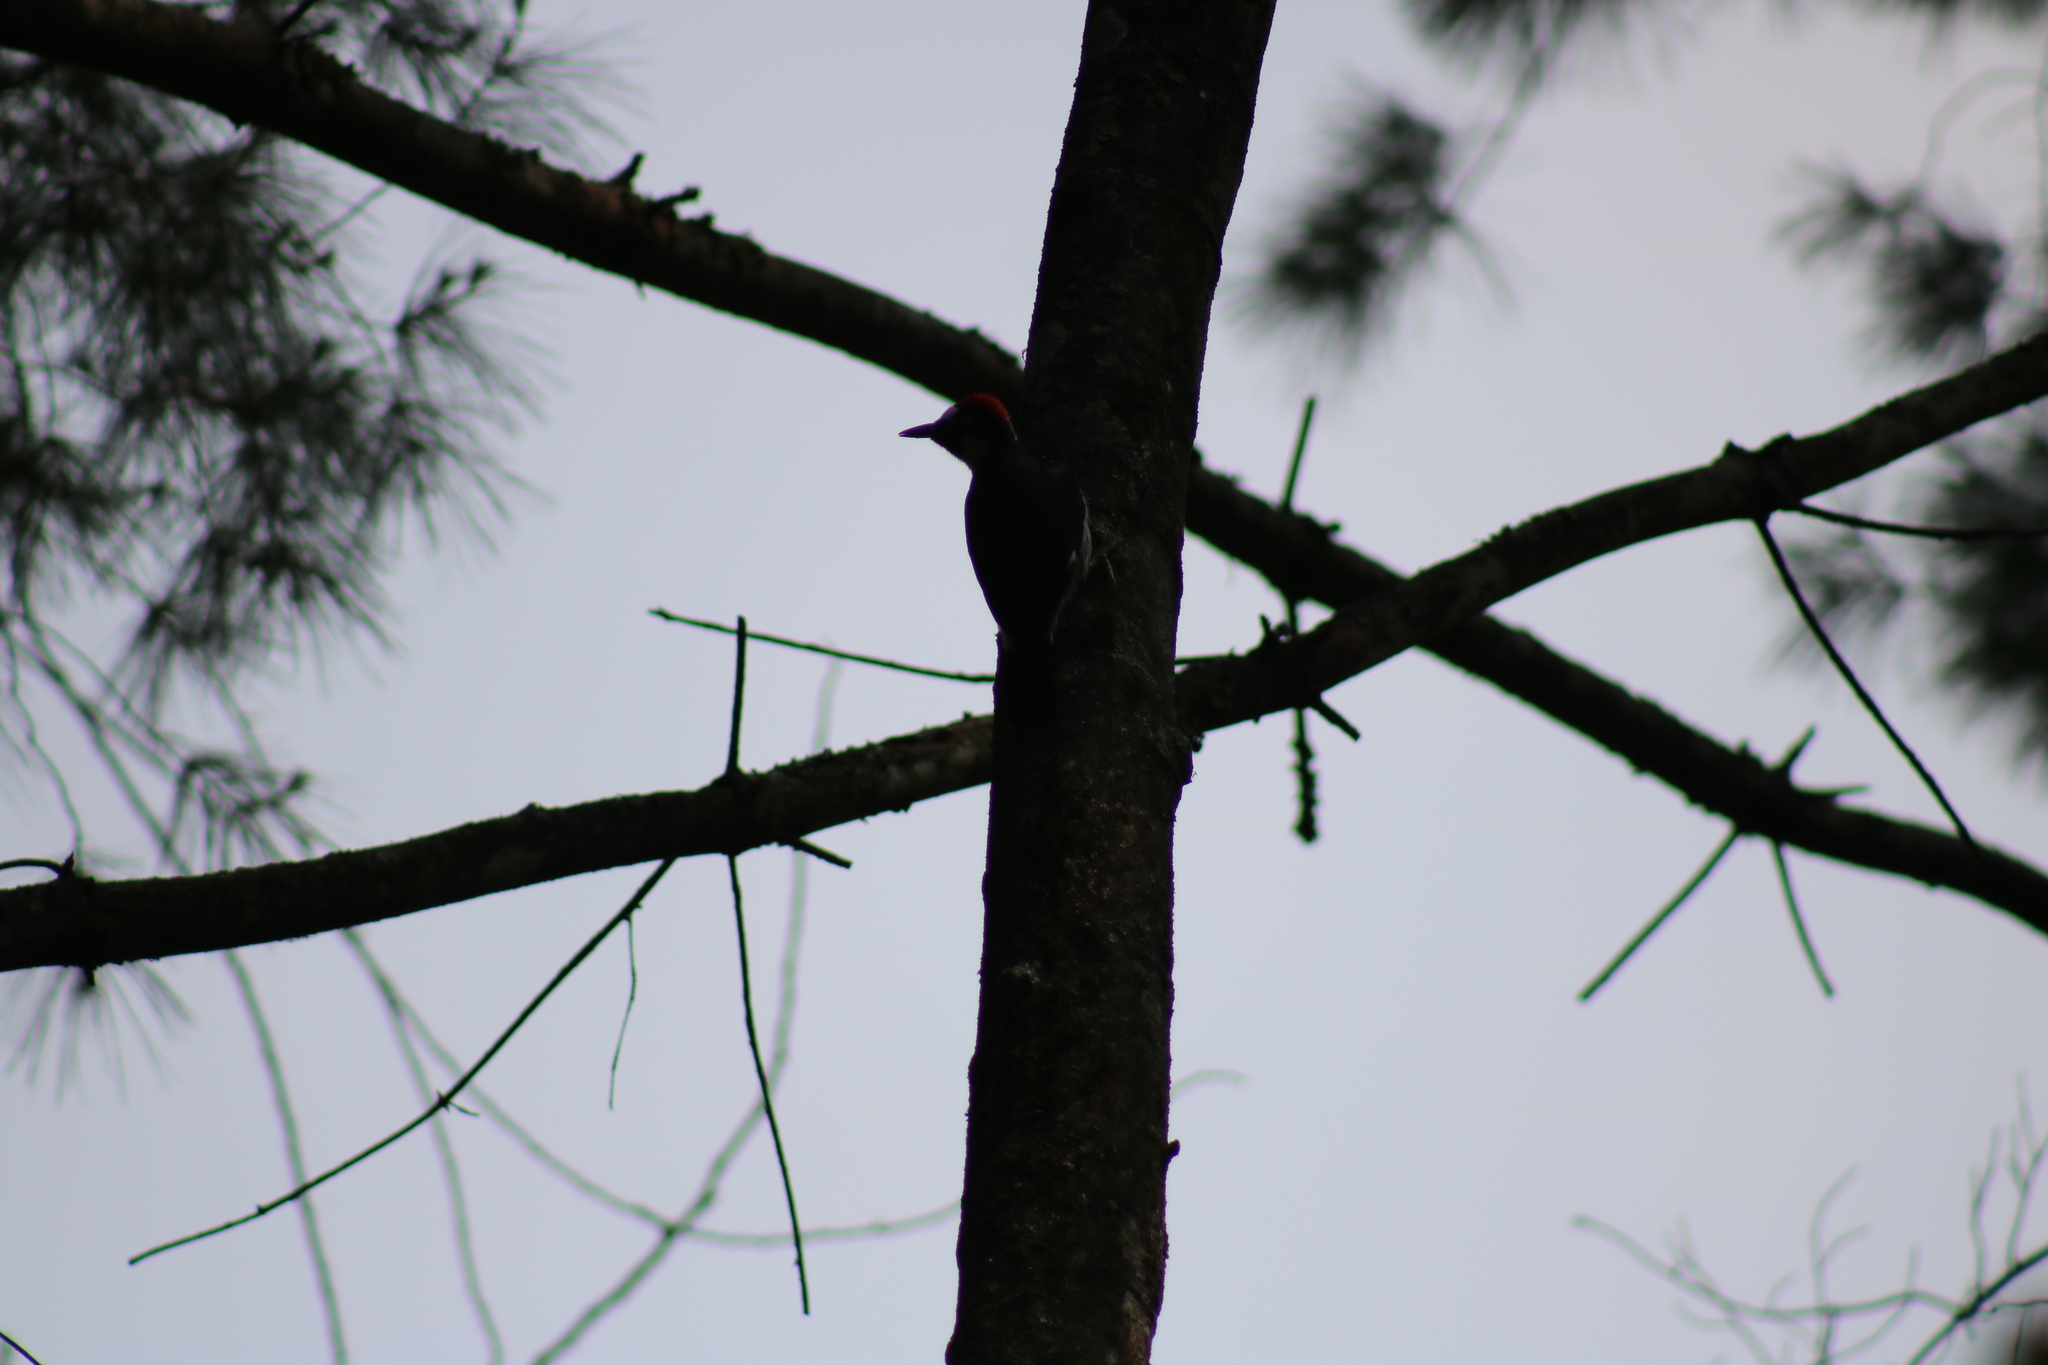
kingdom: Animalia
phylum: Chordata
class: Aves
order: Piciformes
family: Picidae
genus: Melanerpes
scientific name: Melanerpes formicivorus
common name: Acorn woodpecker
